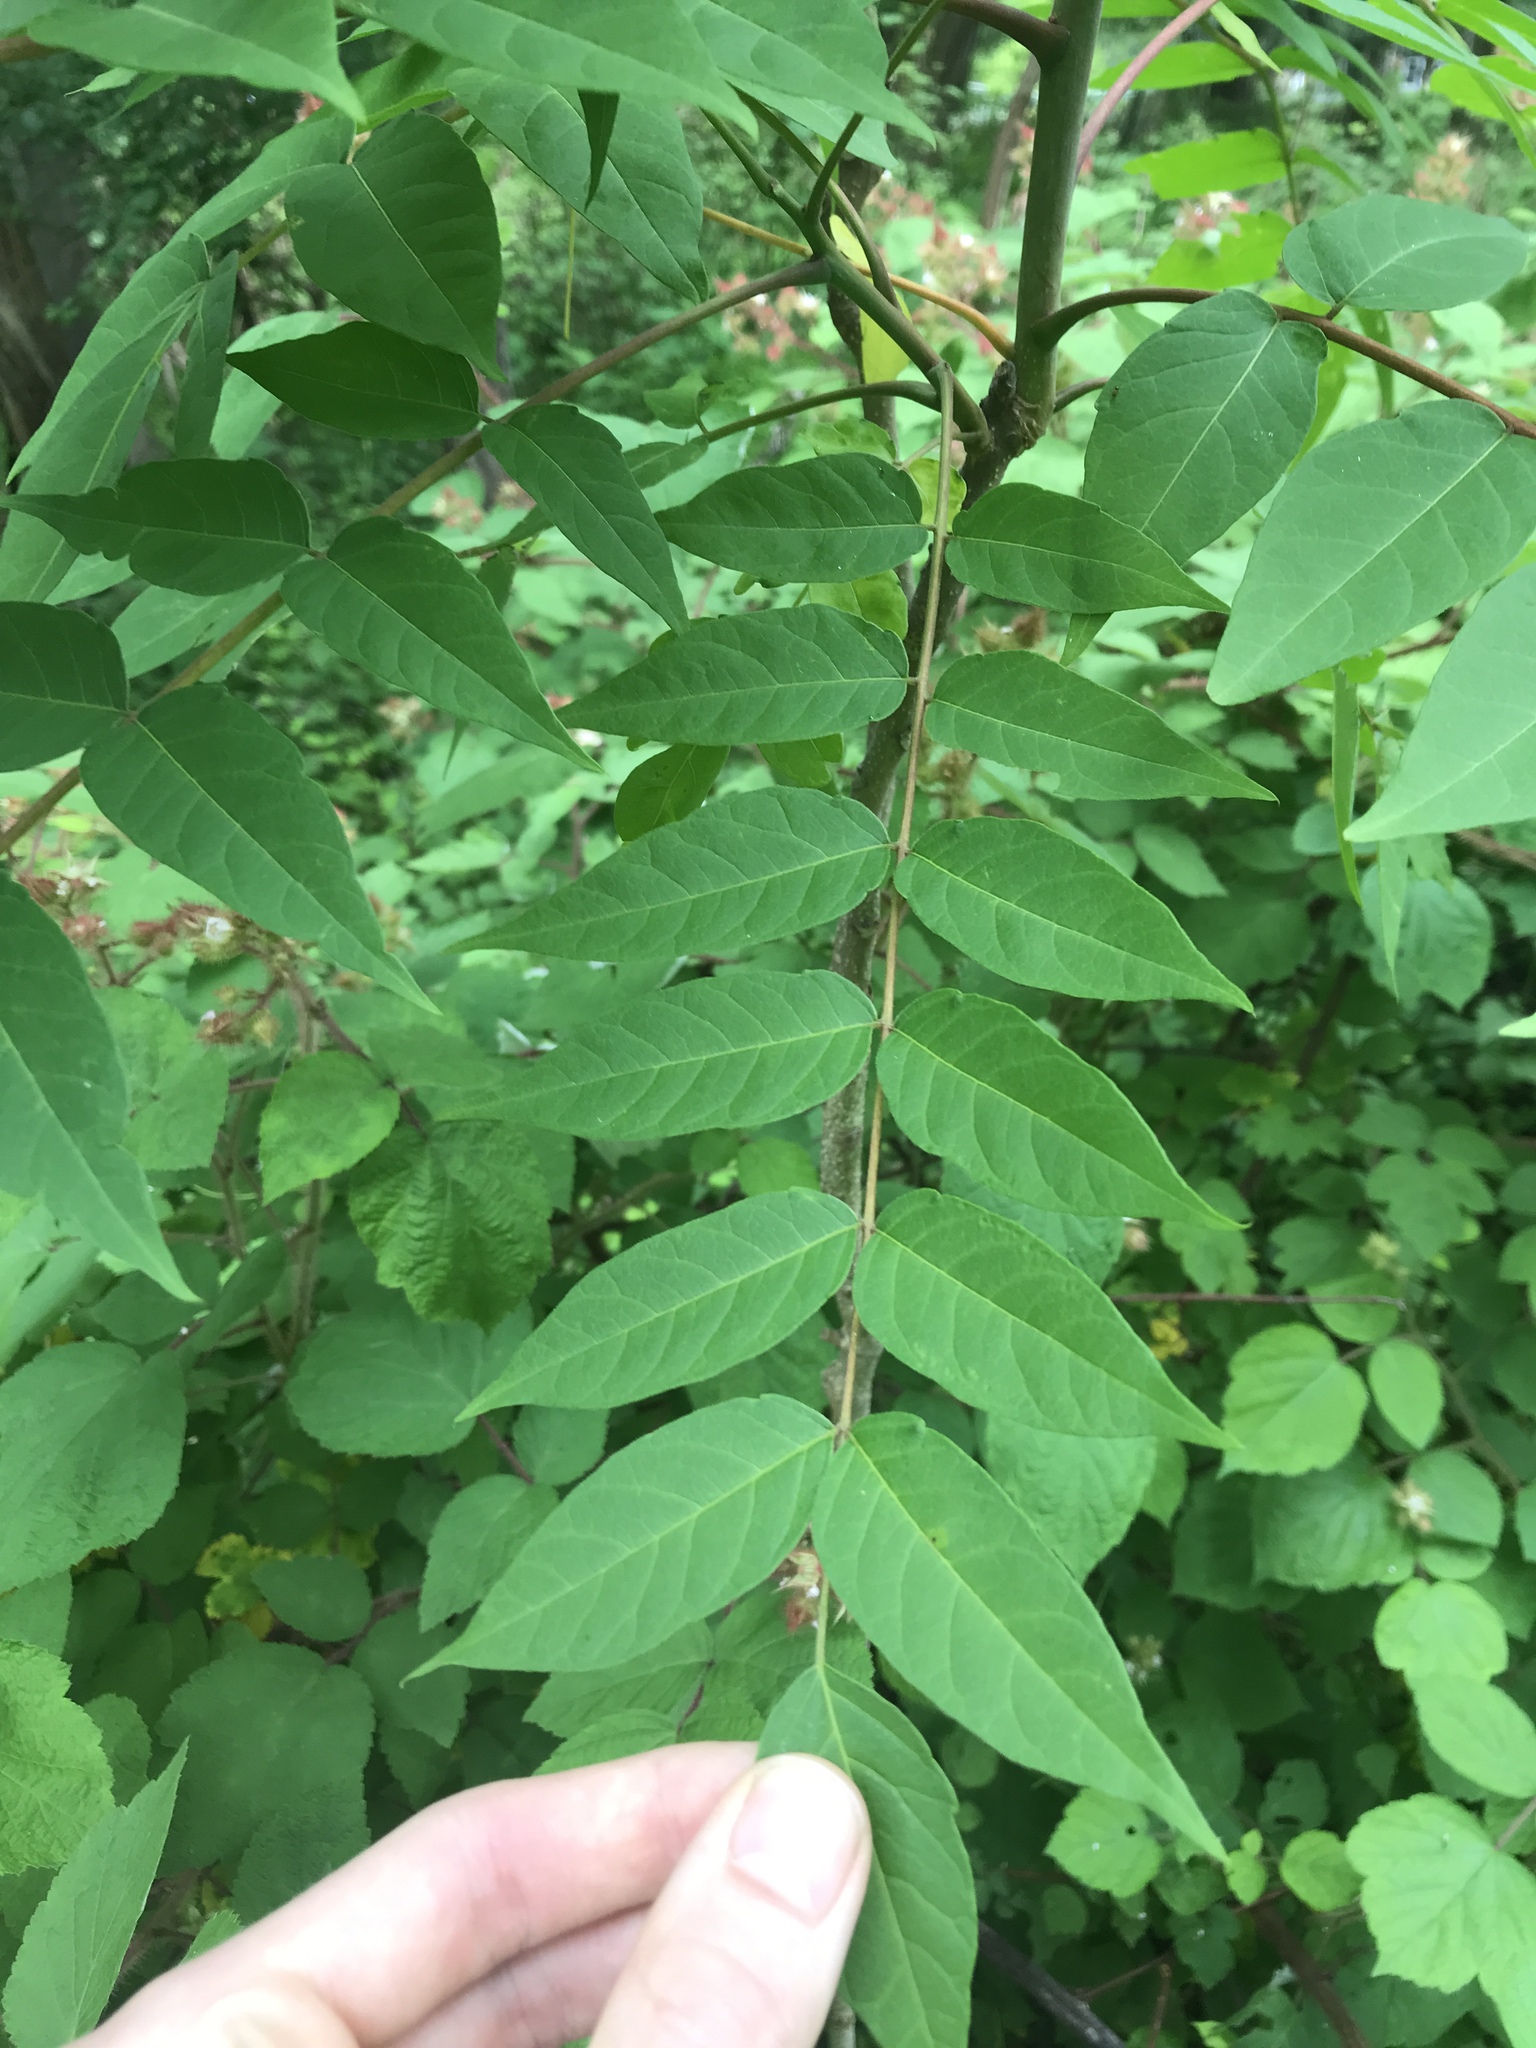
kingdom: Plantae
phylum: Tracheophyta
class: Magnoliopsida
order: Sapindales
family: Simaroubaceae
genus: Ailanthus
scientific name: Ailanthus altissima
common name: Tree-of-heaven
